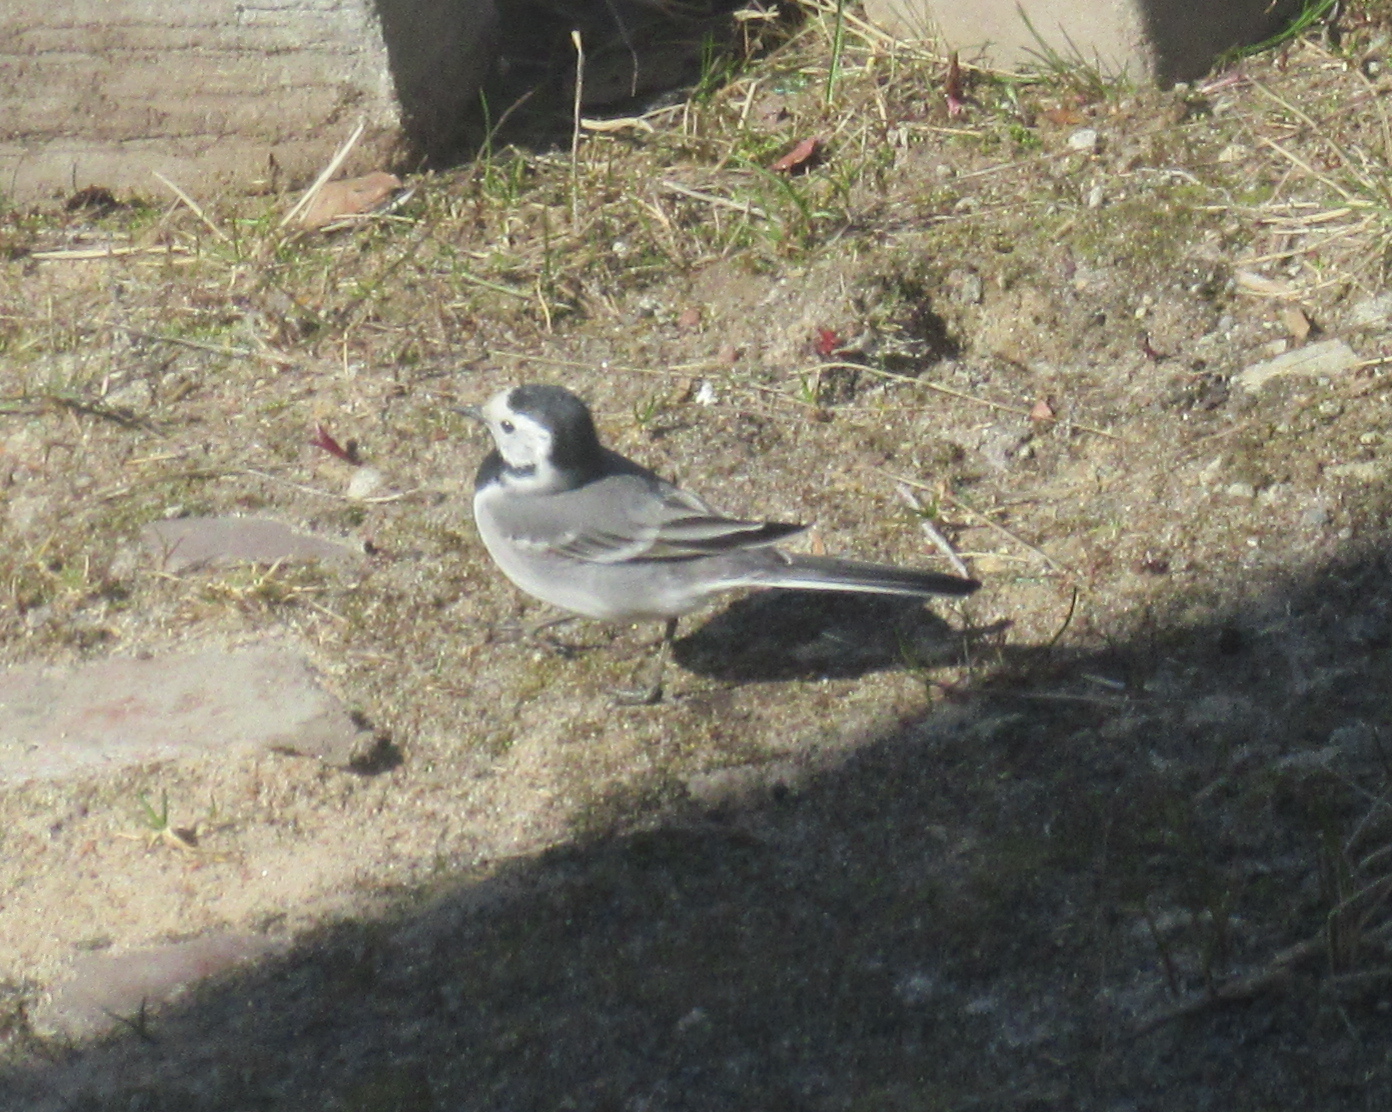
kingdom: Animalia
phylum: Chordata
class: Aves
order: Passeriformes
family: Motacillidae
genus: Motacilla
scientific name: Motacilla alba
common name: White wagtail
